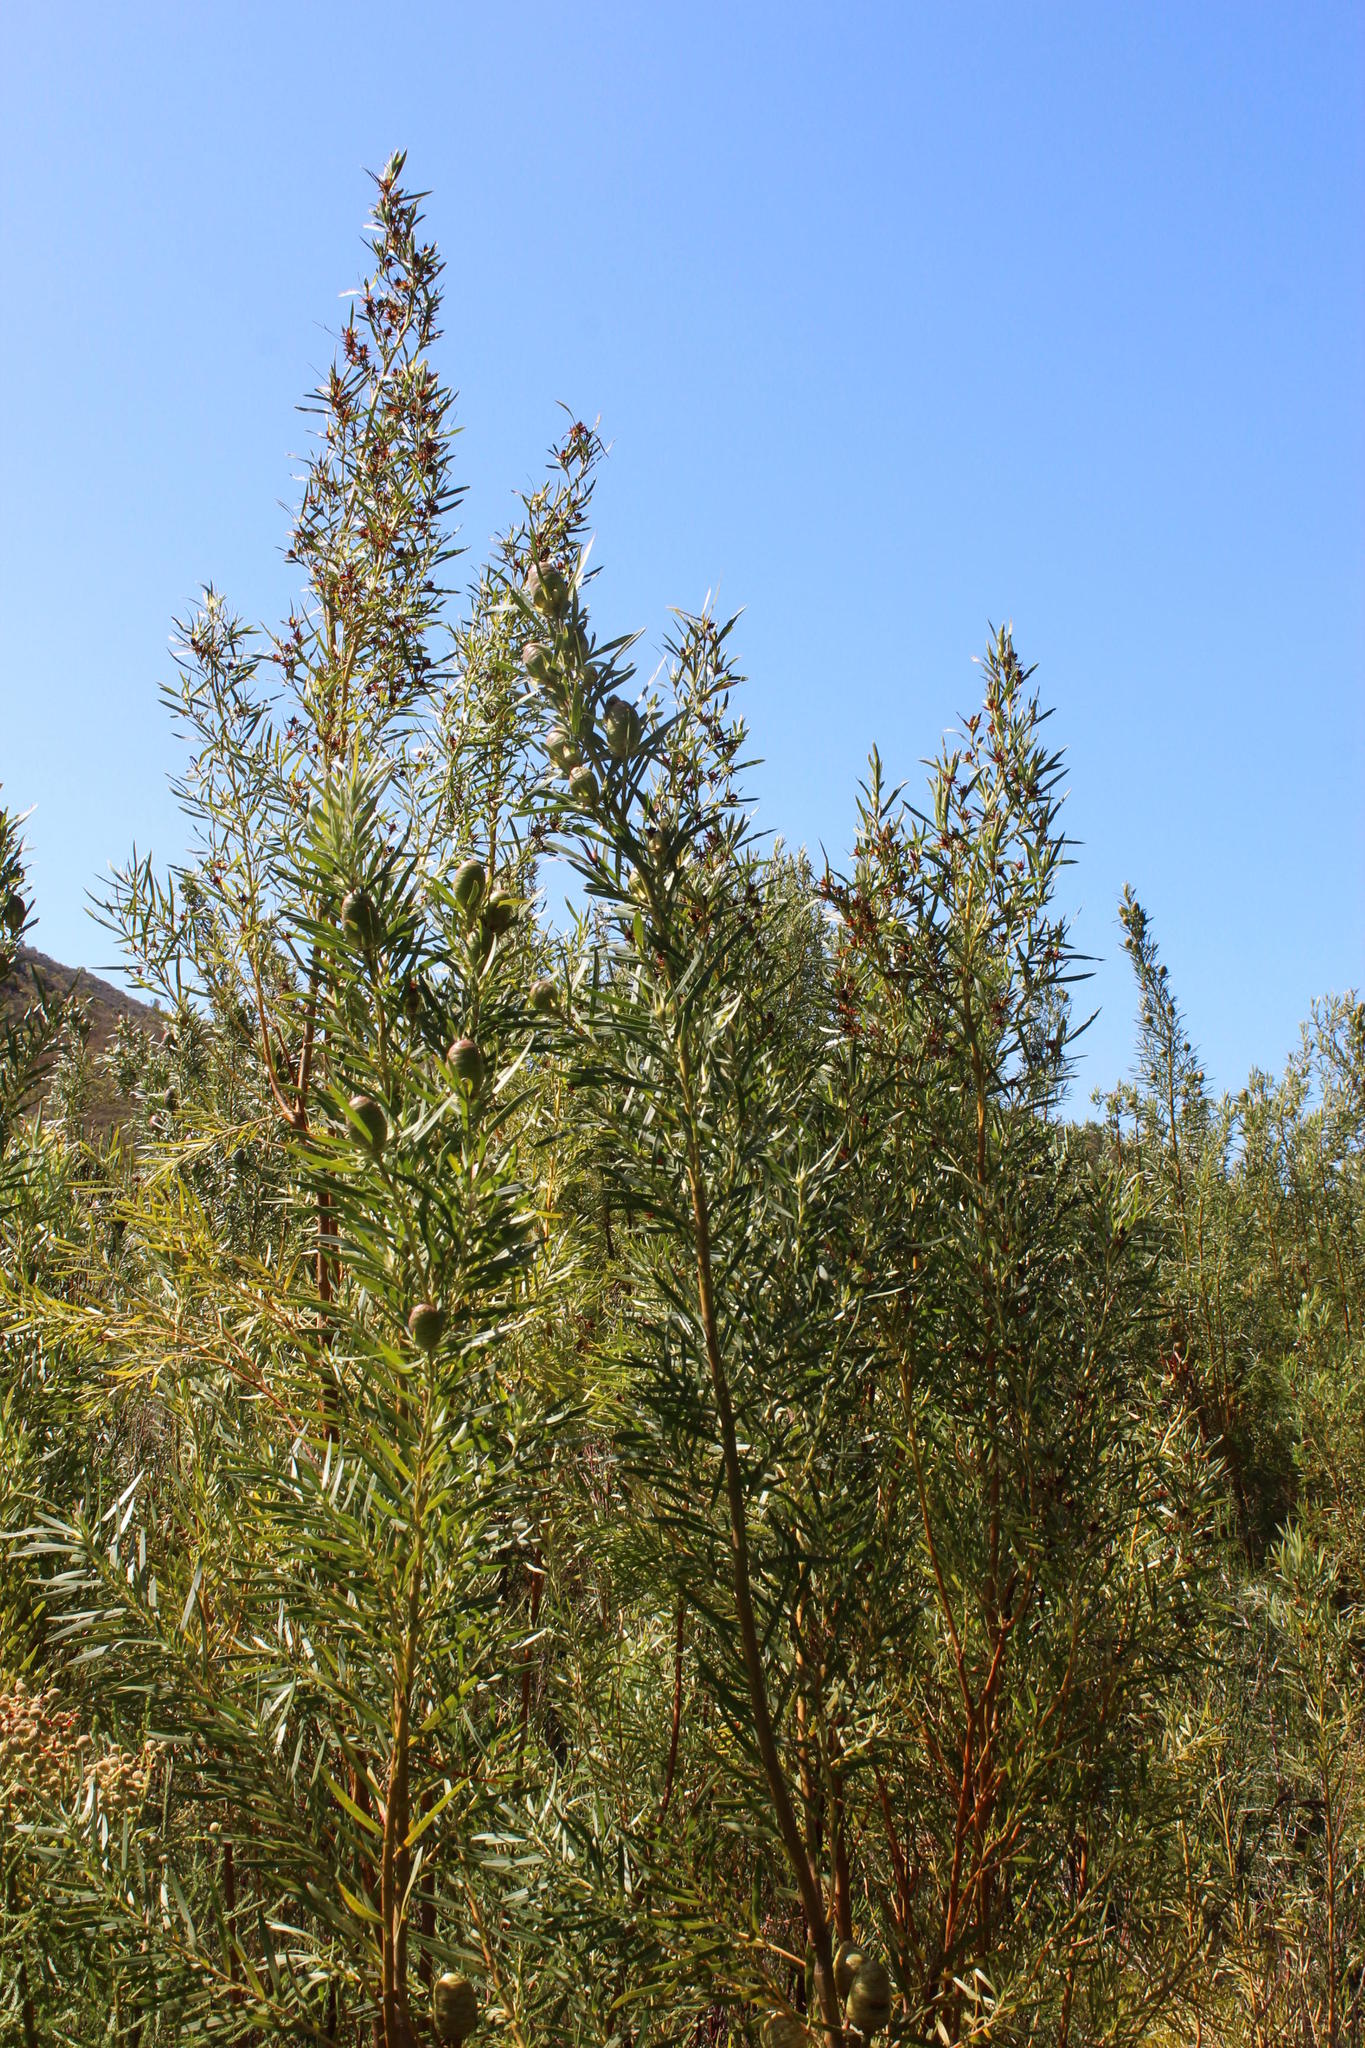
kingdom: Plantae
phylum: Tracheophyta
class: Magnoliopsida
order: Proteales
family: Proteaceae
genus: Leucadendron
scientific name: Leucadendron salicifolium
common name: Common stream conebush
